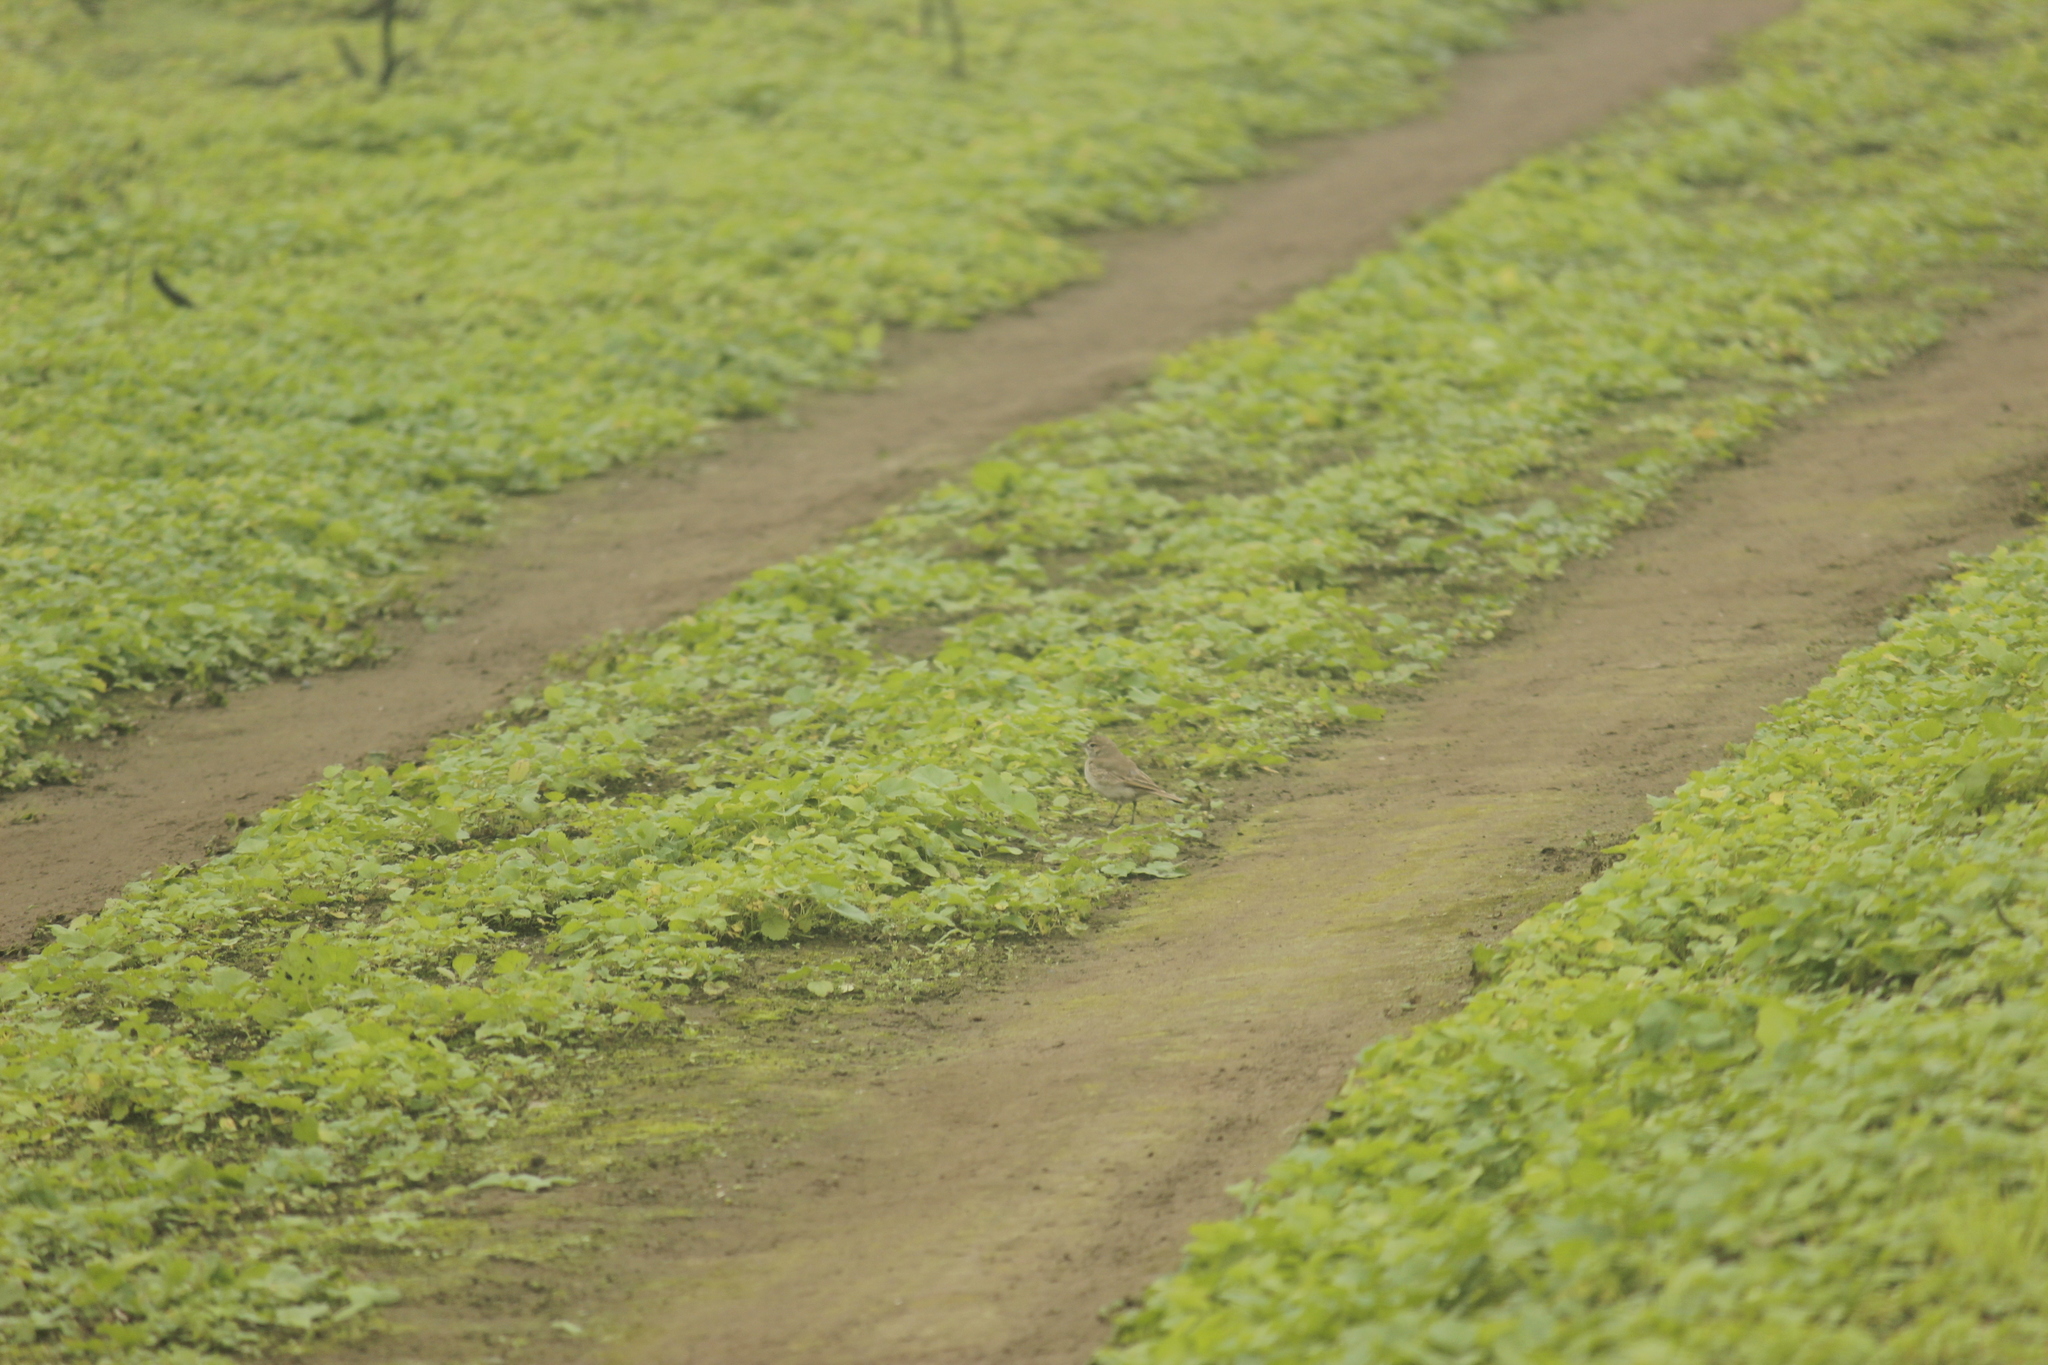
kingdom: Animalia
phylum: Chordata
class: Aves
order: Passeriformes
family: Furnariidae
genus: Geositta
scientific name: Geositta peruviana
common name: Coastal miner
